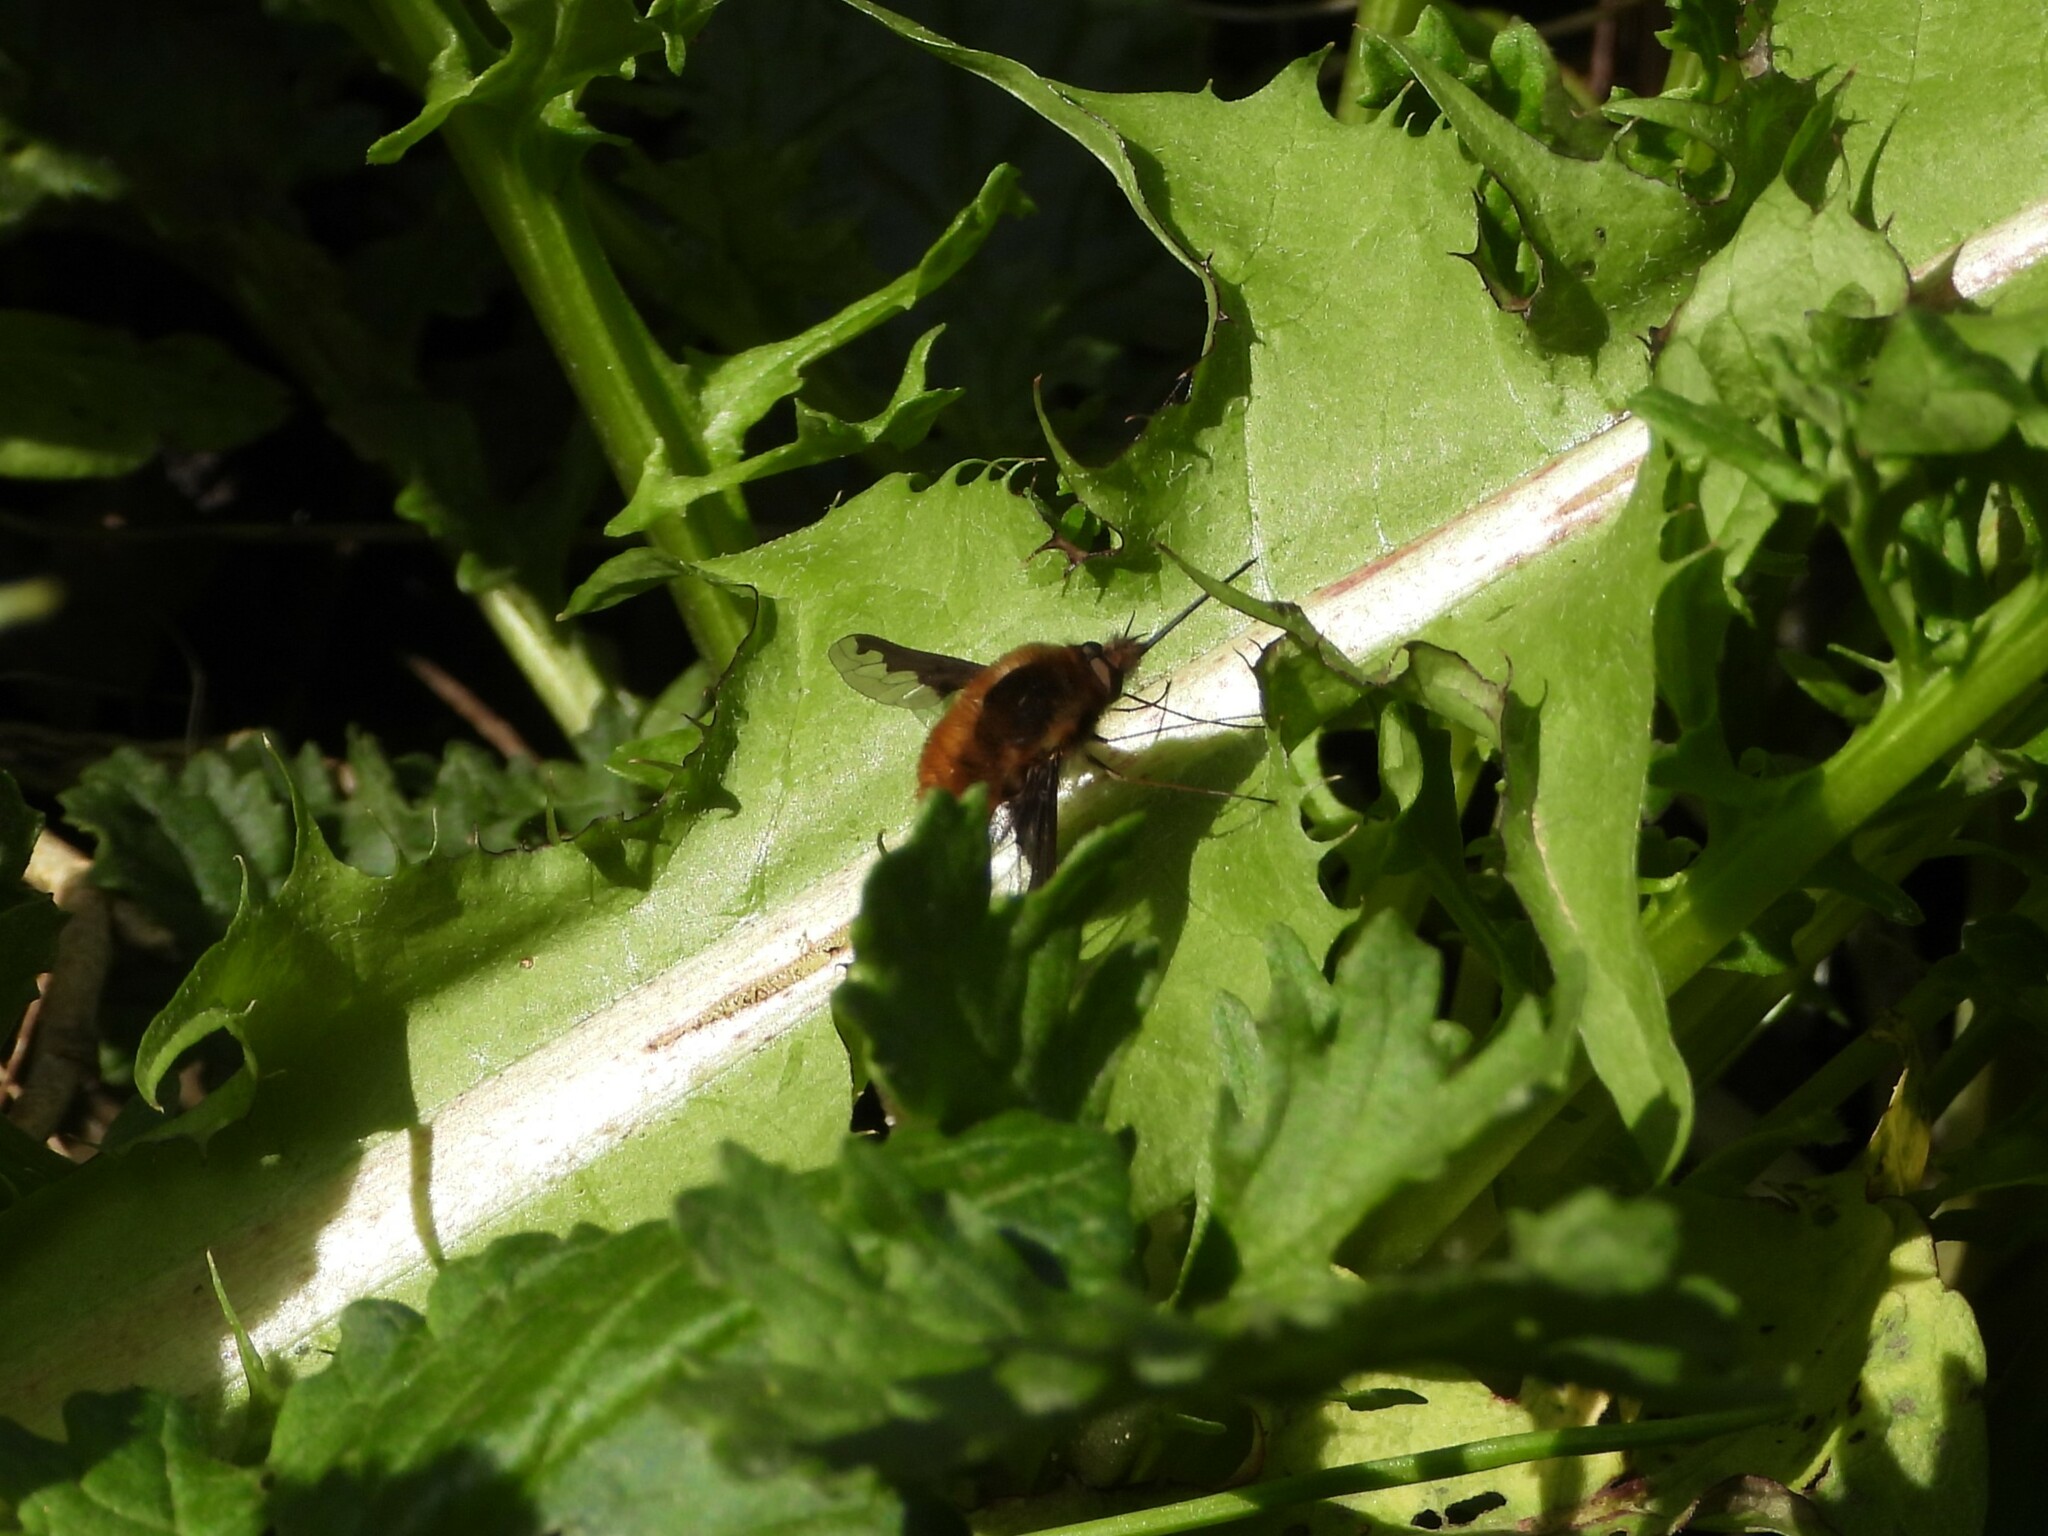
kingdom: Animalia
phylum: Arthropoda
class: Insecta
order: Diptera
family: Bombyliidae
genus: Bombylius
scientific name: Bombylius major
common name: Bee fly
